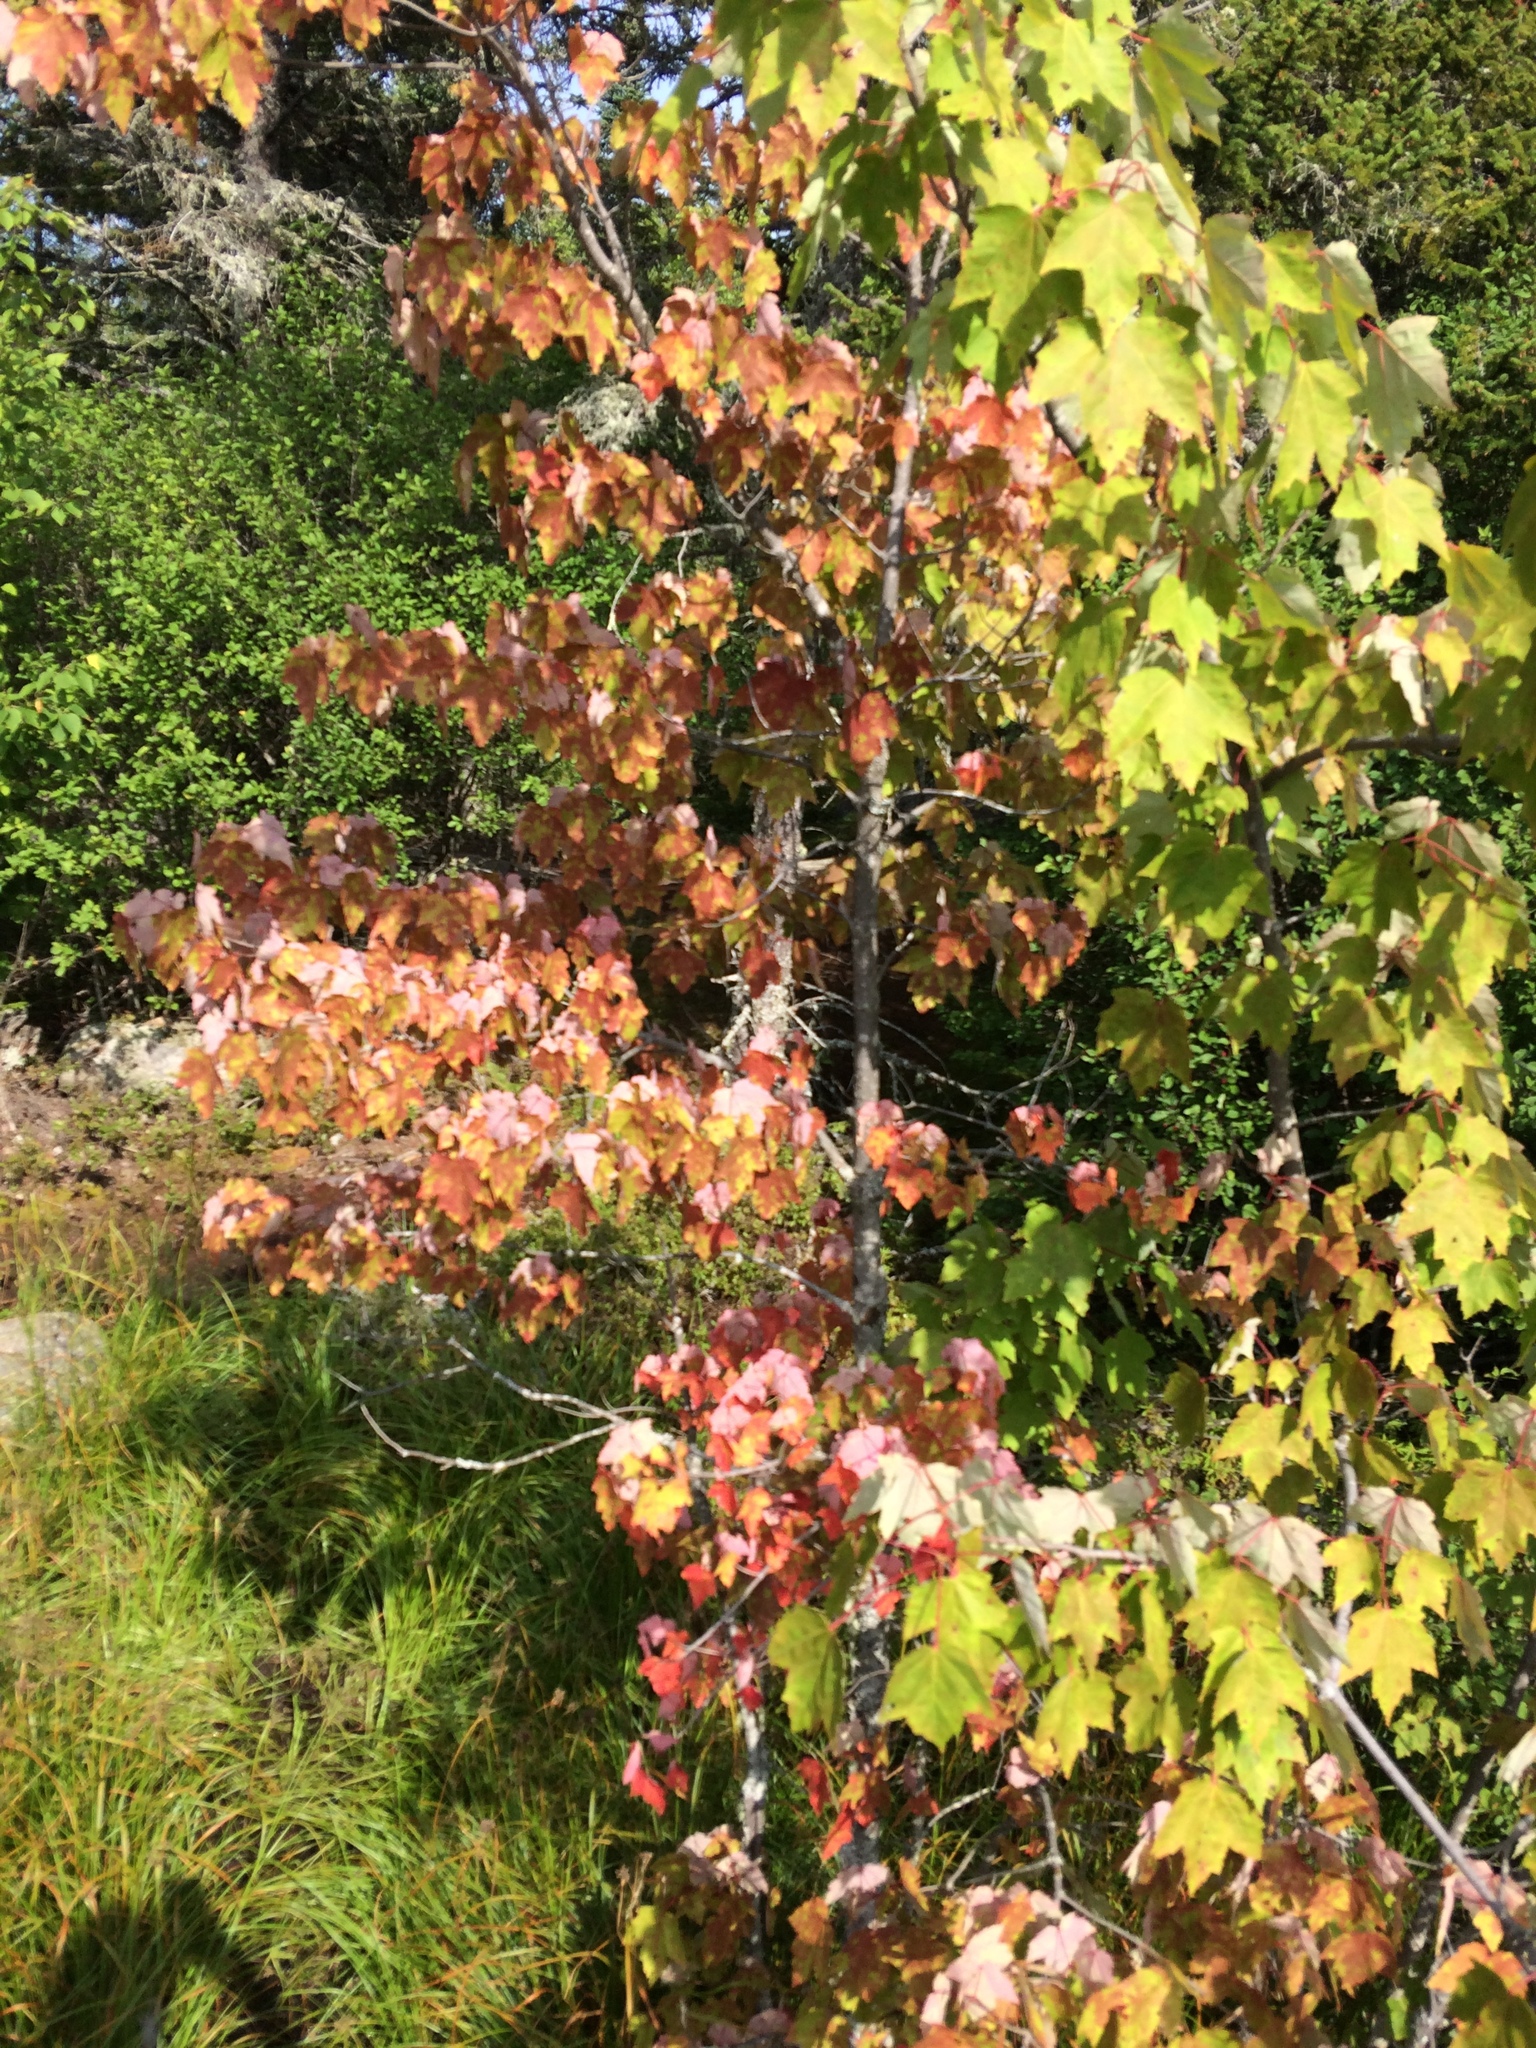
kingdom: Plantae
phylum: Tracheophyta
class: Magnoliopsida
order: Sapindales
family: Sapindaceae
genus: Acer
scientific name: Acer rubrum
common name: Red maple
